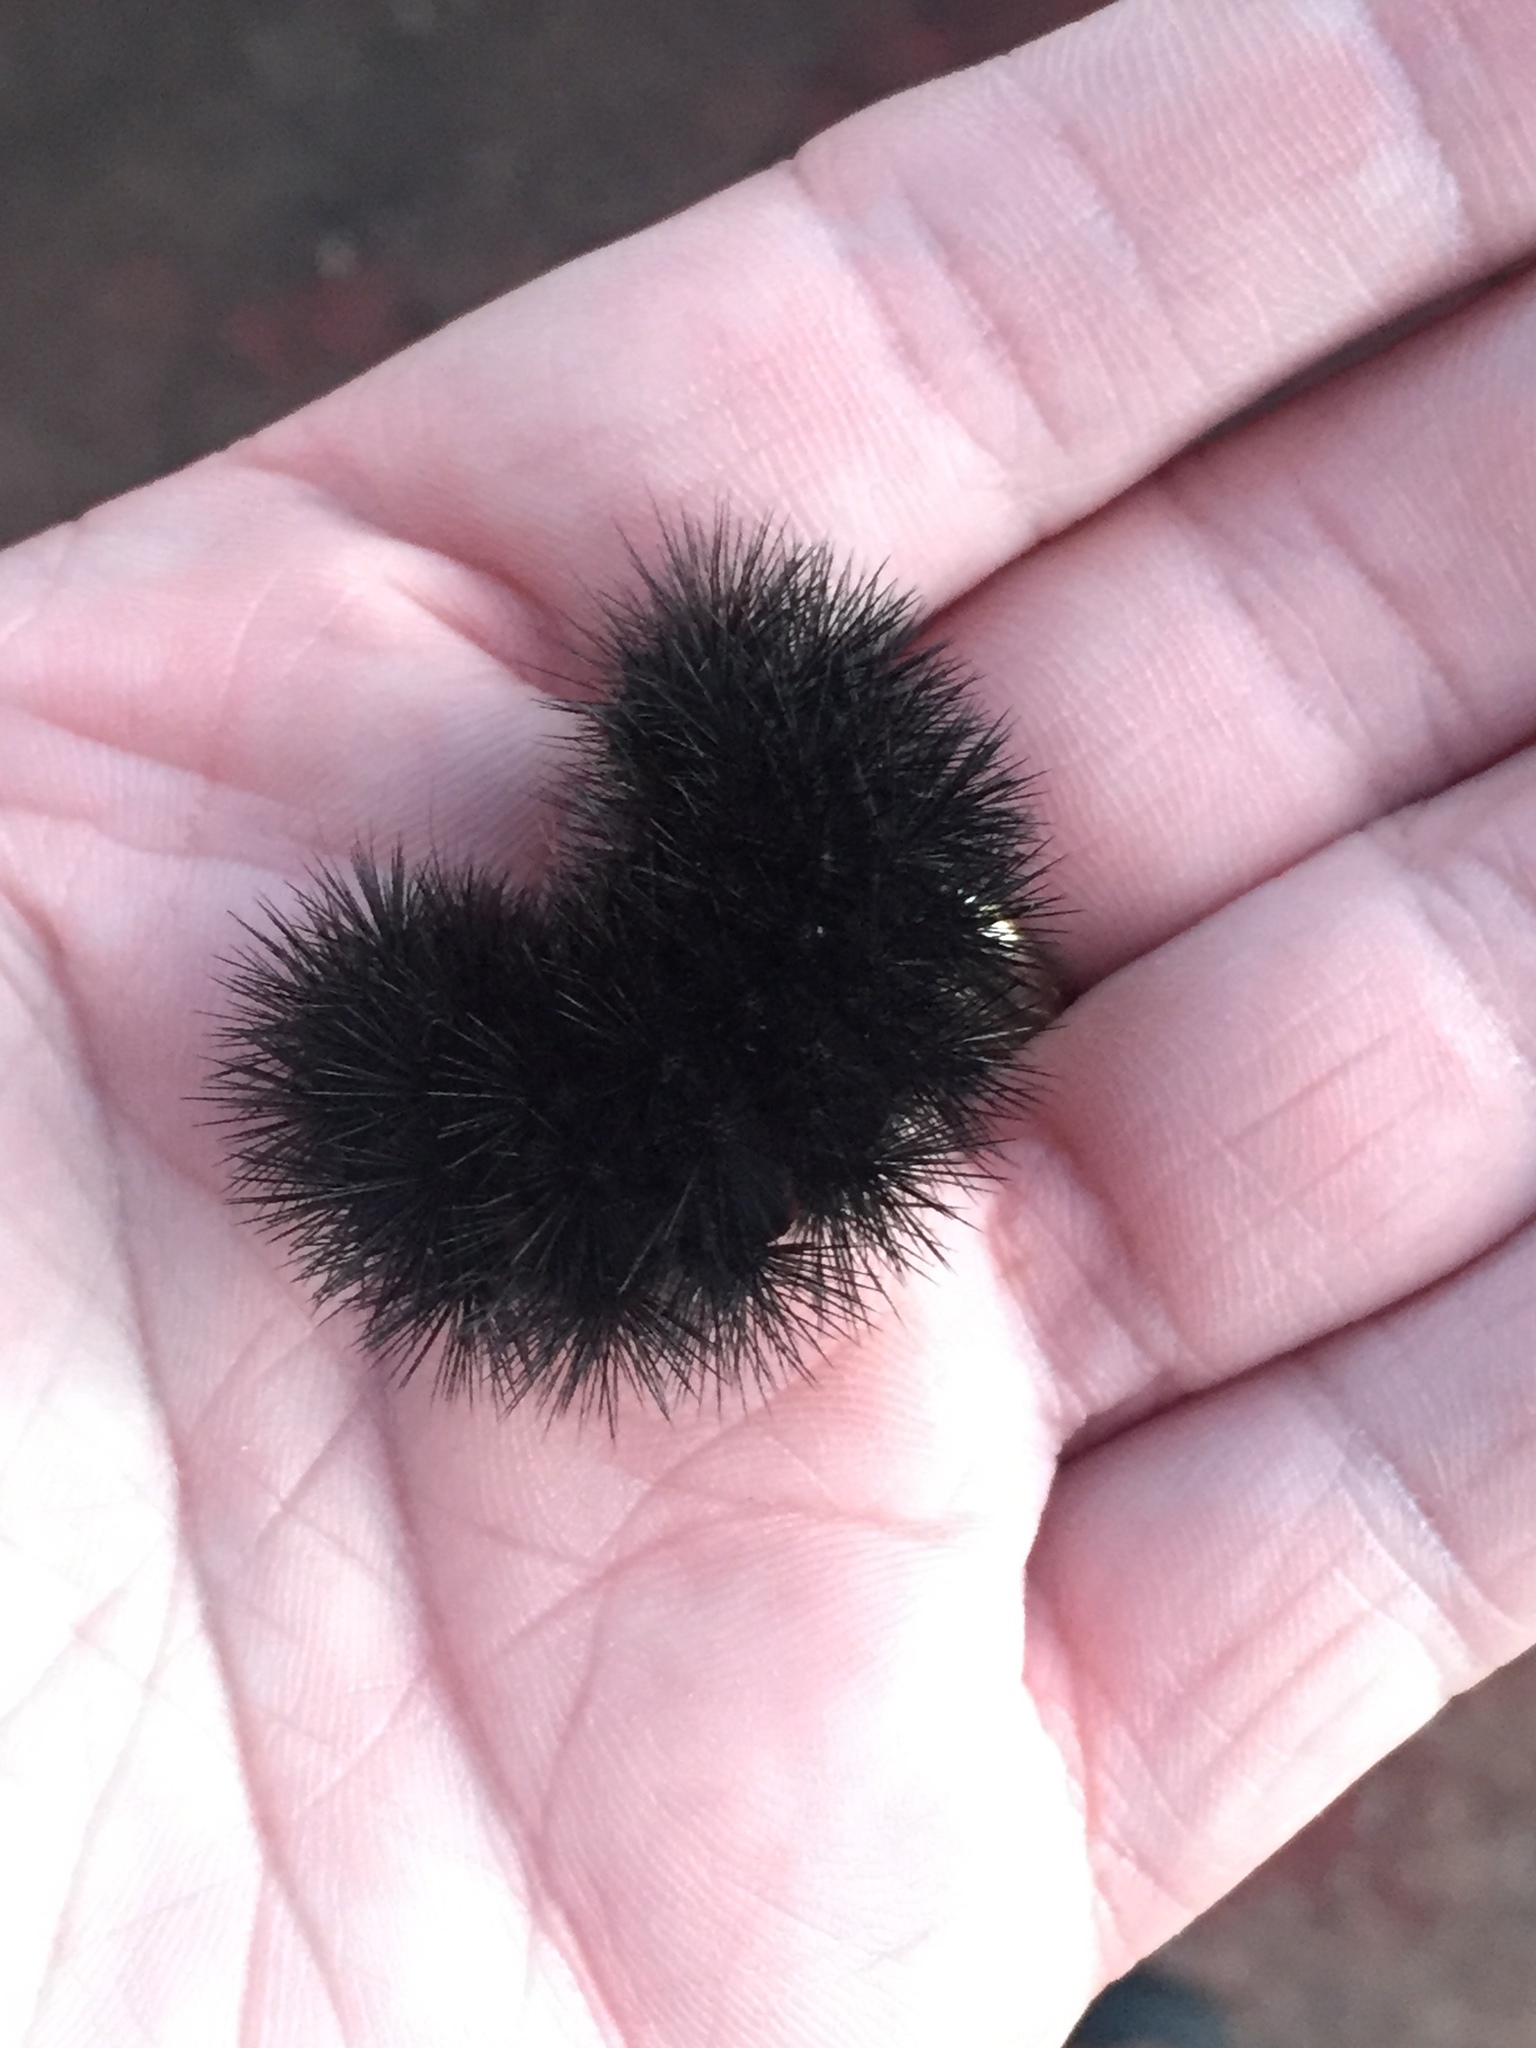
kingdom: Animalia
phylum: Arthropoda
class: Insecta
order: Lepidoptera
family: Erebidae
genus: Hypercompe
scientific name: Hypercompe scribonia
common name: Giant leopard moth
